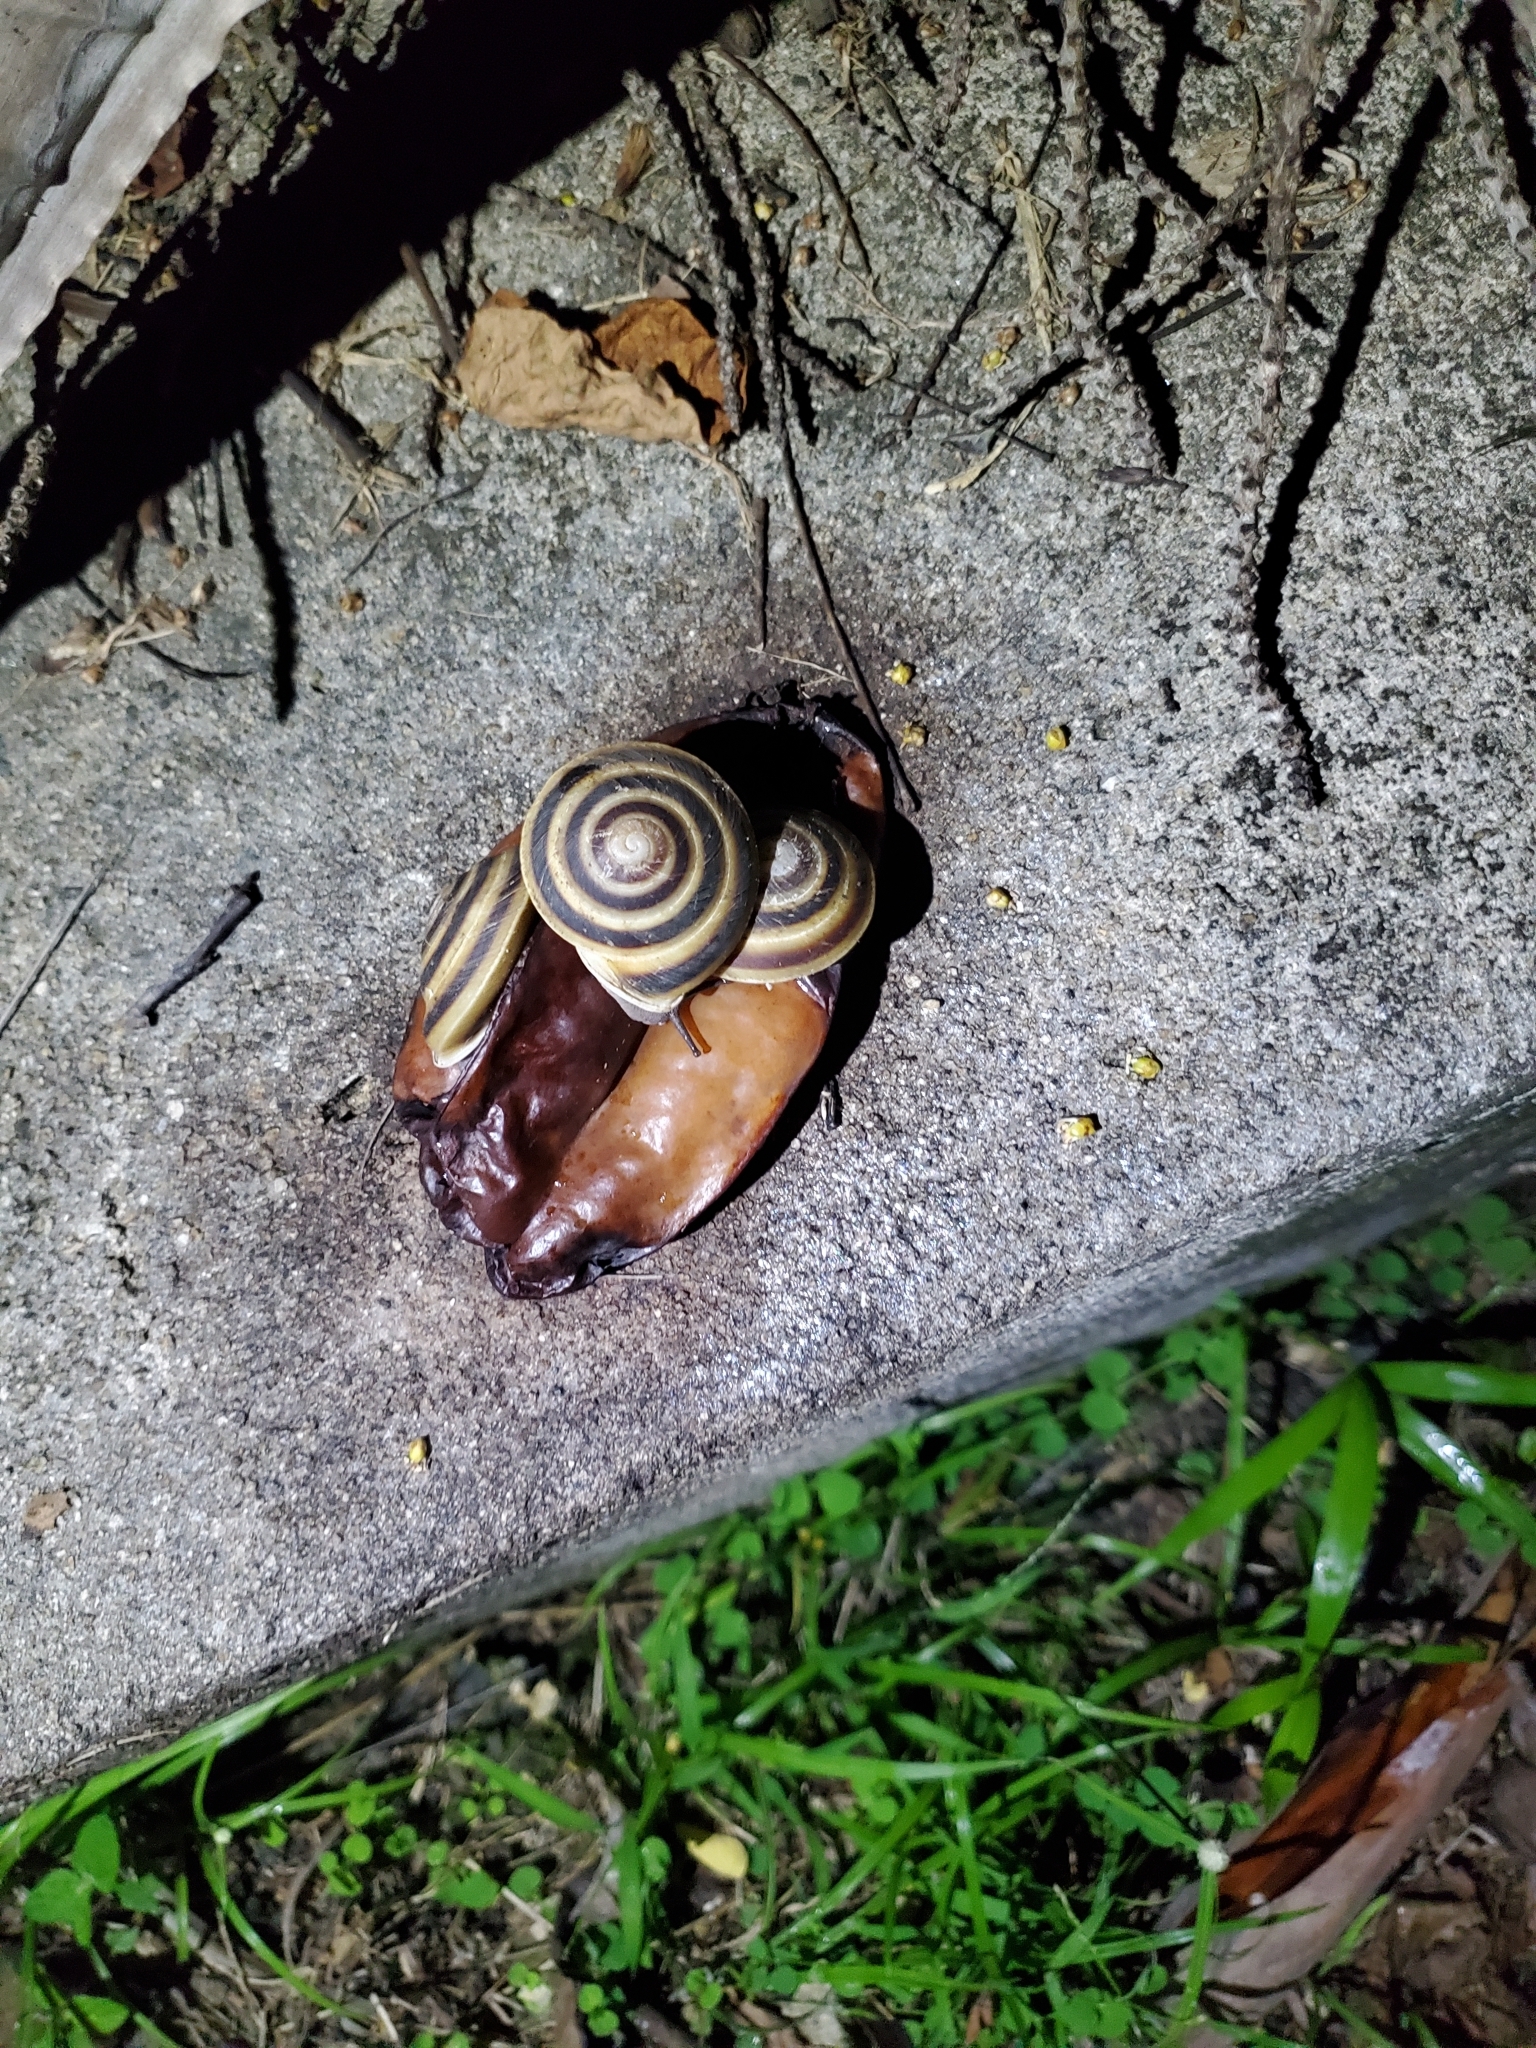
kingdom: Animalia
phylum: Mollusca
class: Gastropoda
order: Stylommatophora
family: Solaropsidae
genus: Caracolus
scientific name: Caracolus marginella
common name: Banded caracol
